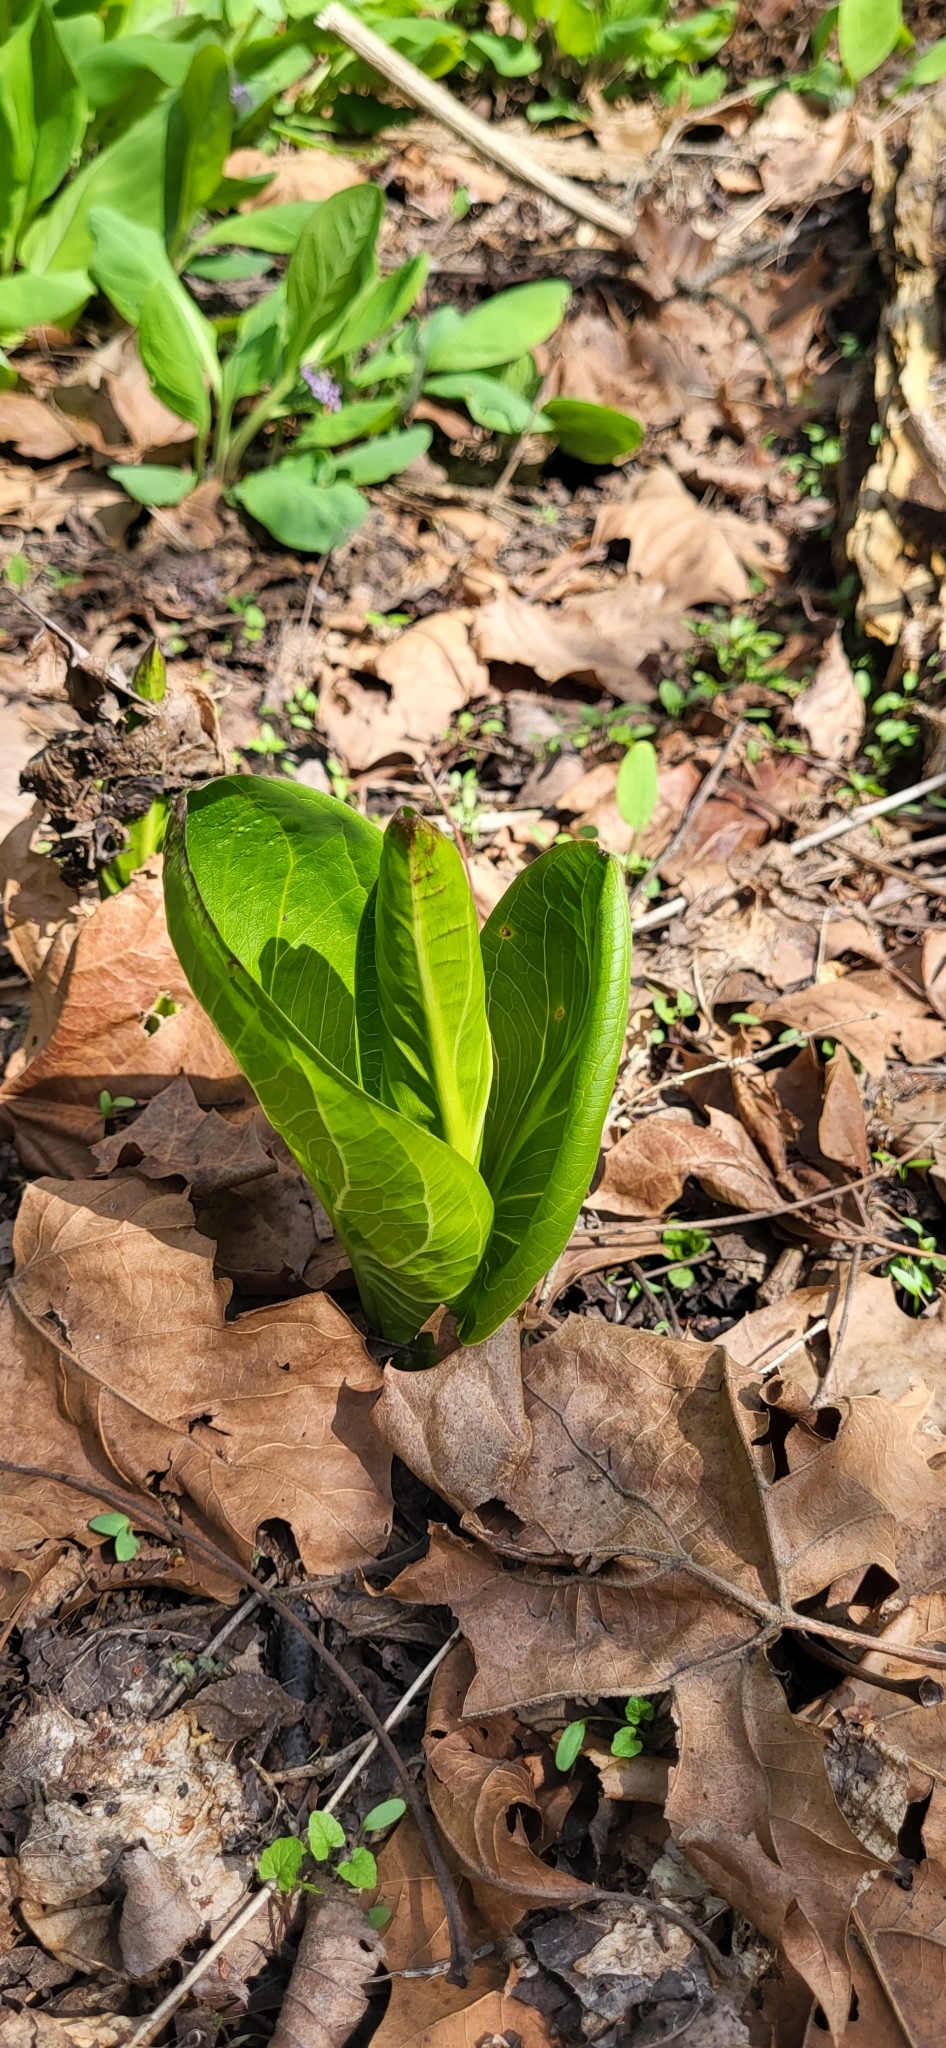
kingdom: Plantae
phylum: Tracheophyta
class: Liliopsida
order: Alismatales
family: Araceae
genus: Symplocarpus
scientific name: Symplocarpus foetidus
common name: Eastern skunk cabbage
